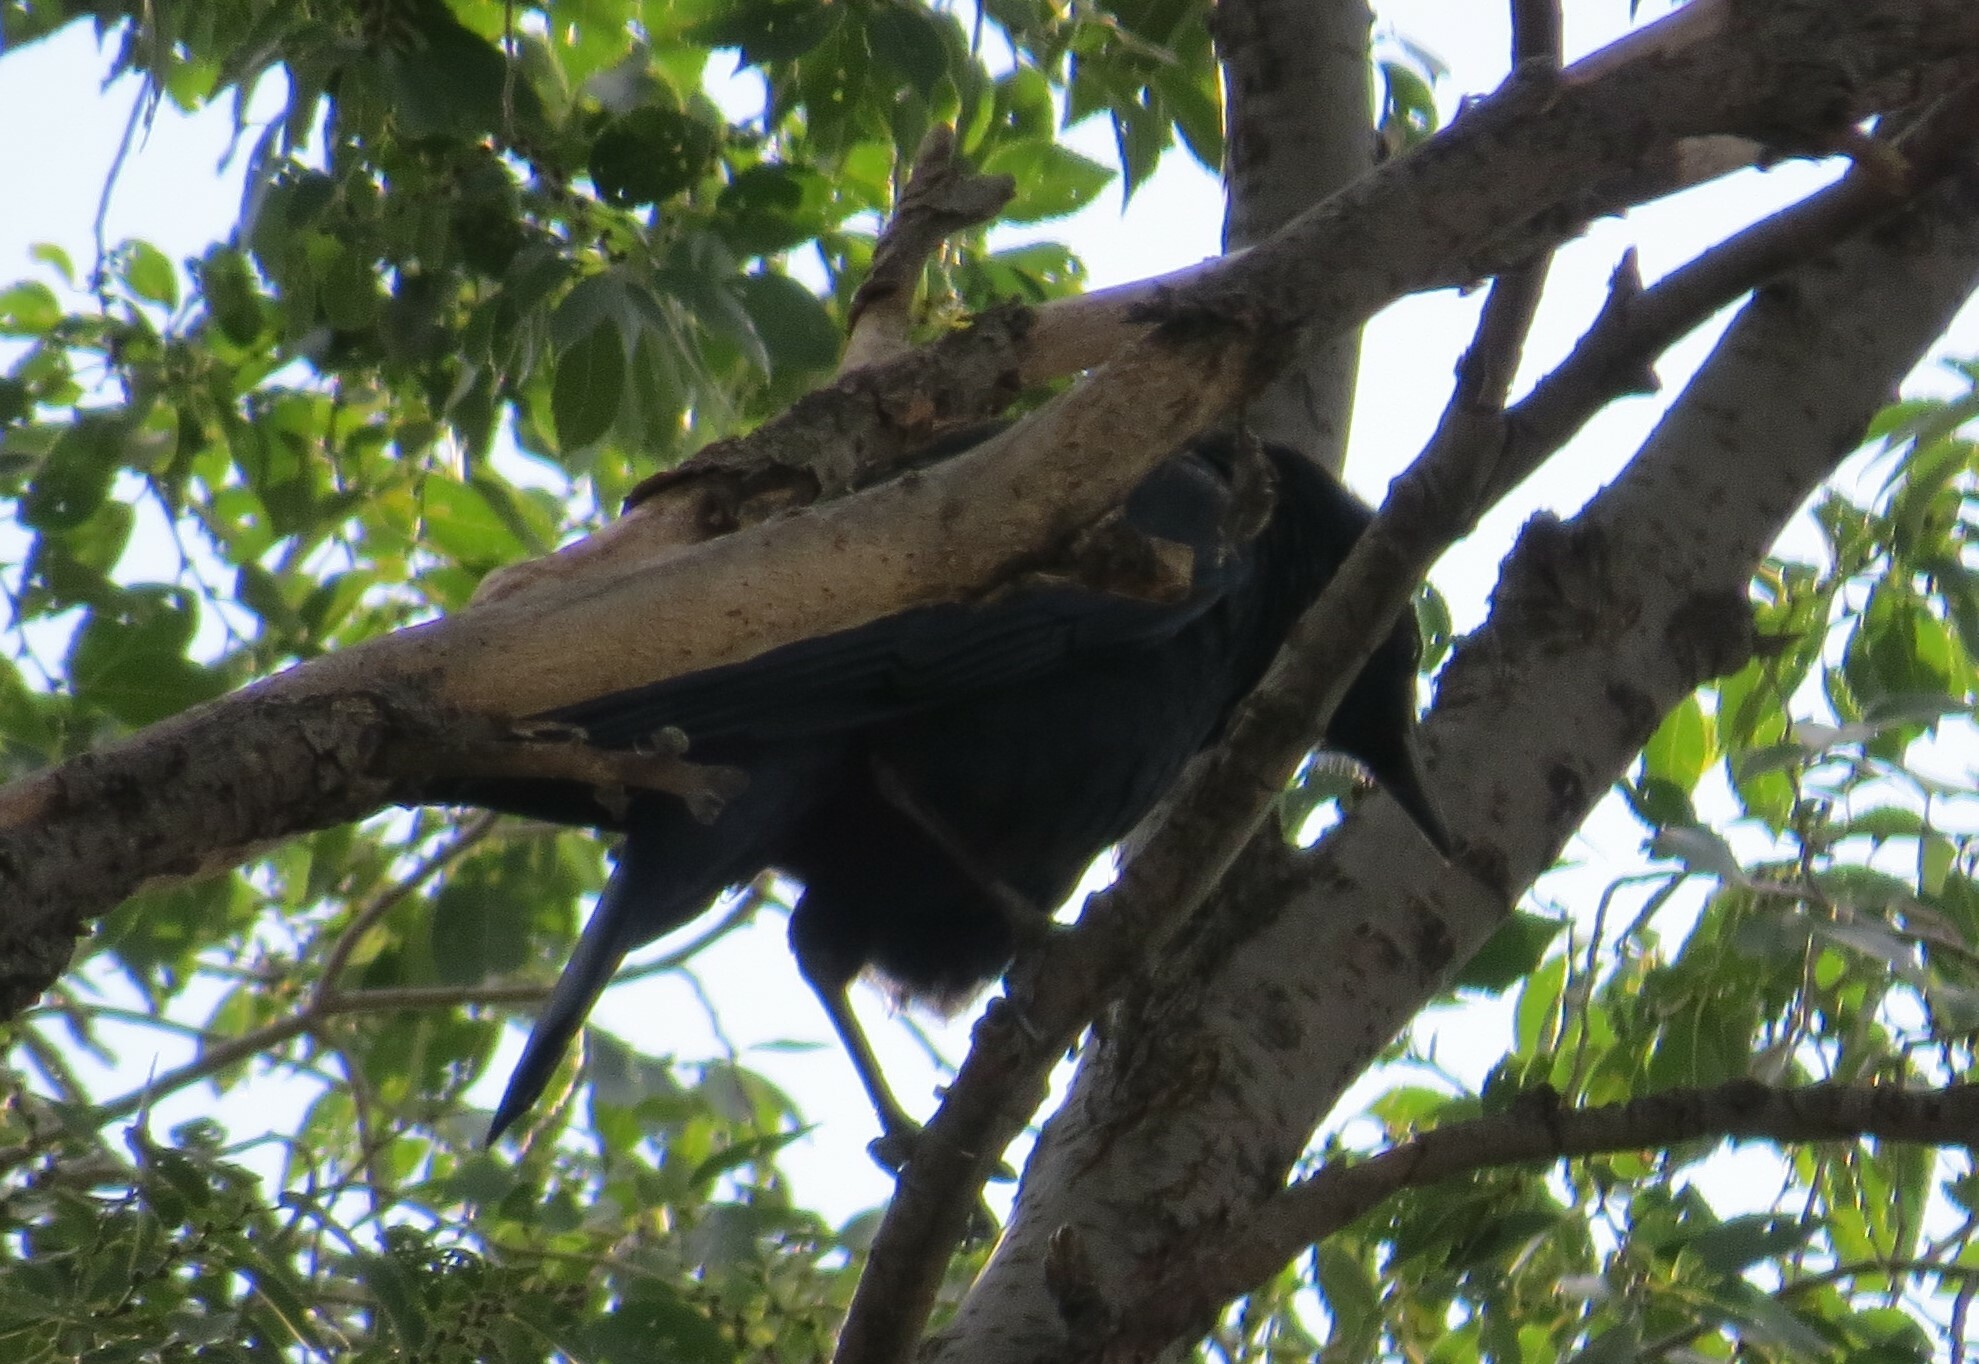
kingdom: Animalia
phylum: Chordata
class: Aves
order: Passeriformes
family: Corvidae
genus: Corvus
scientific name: Corvus brachyrhynchos
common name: American crow
